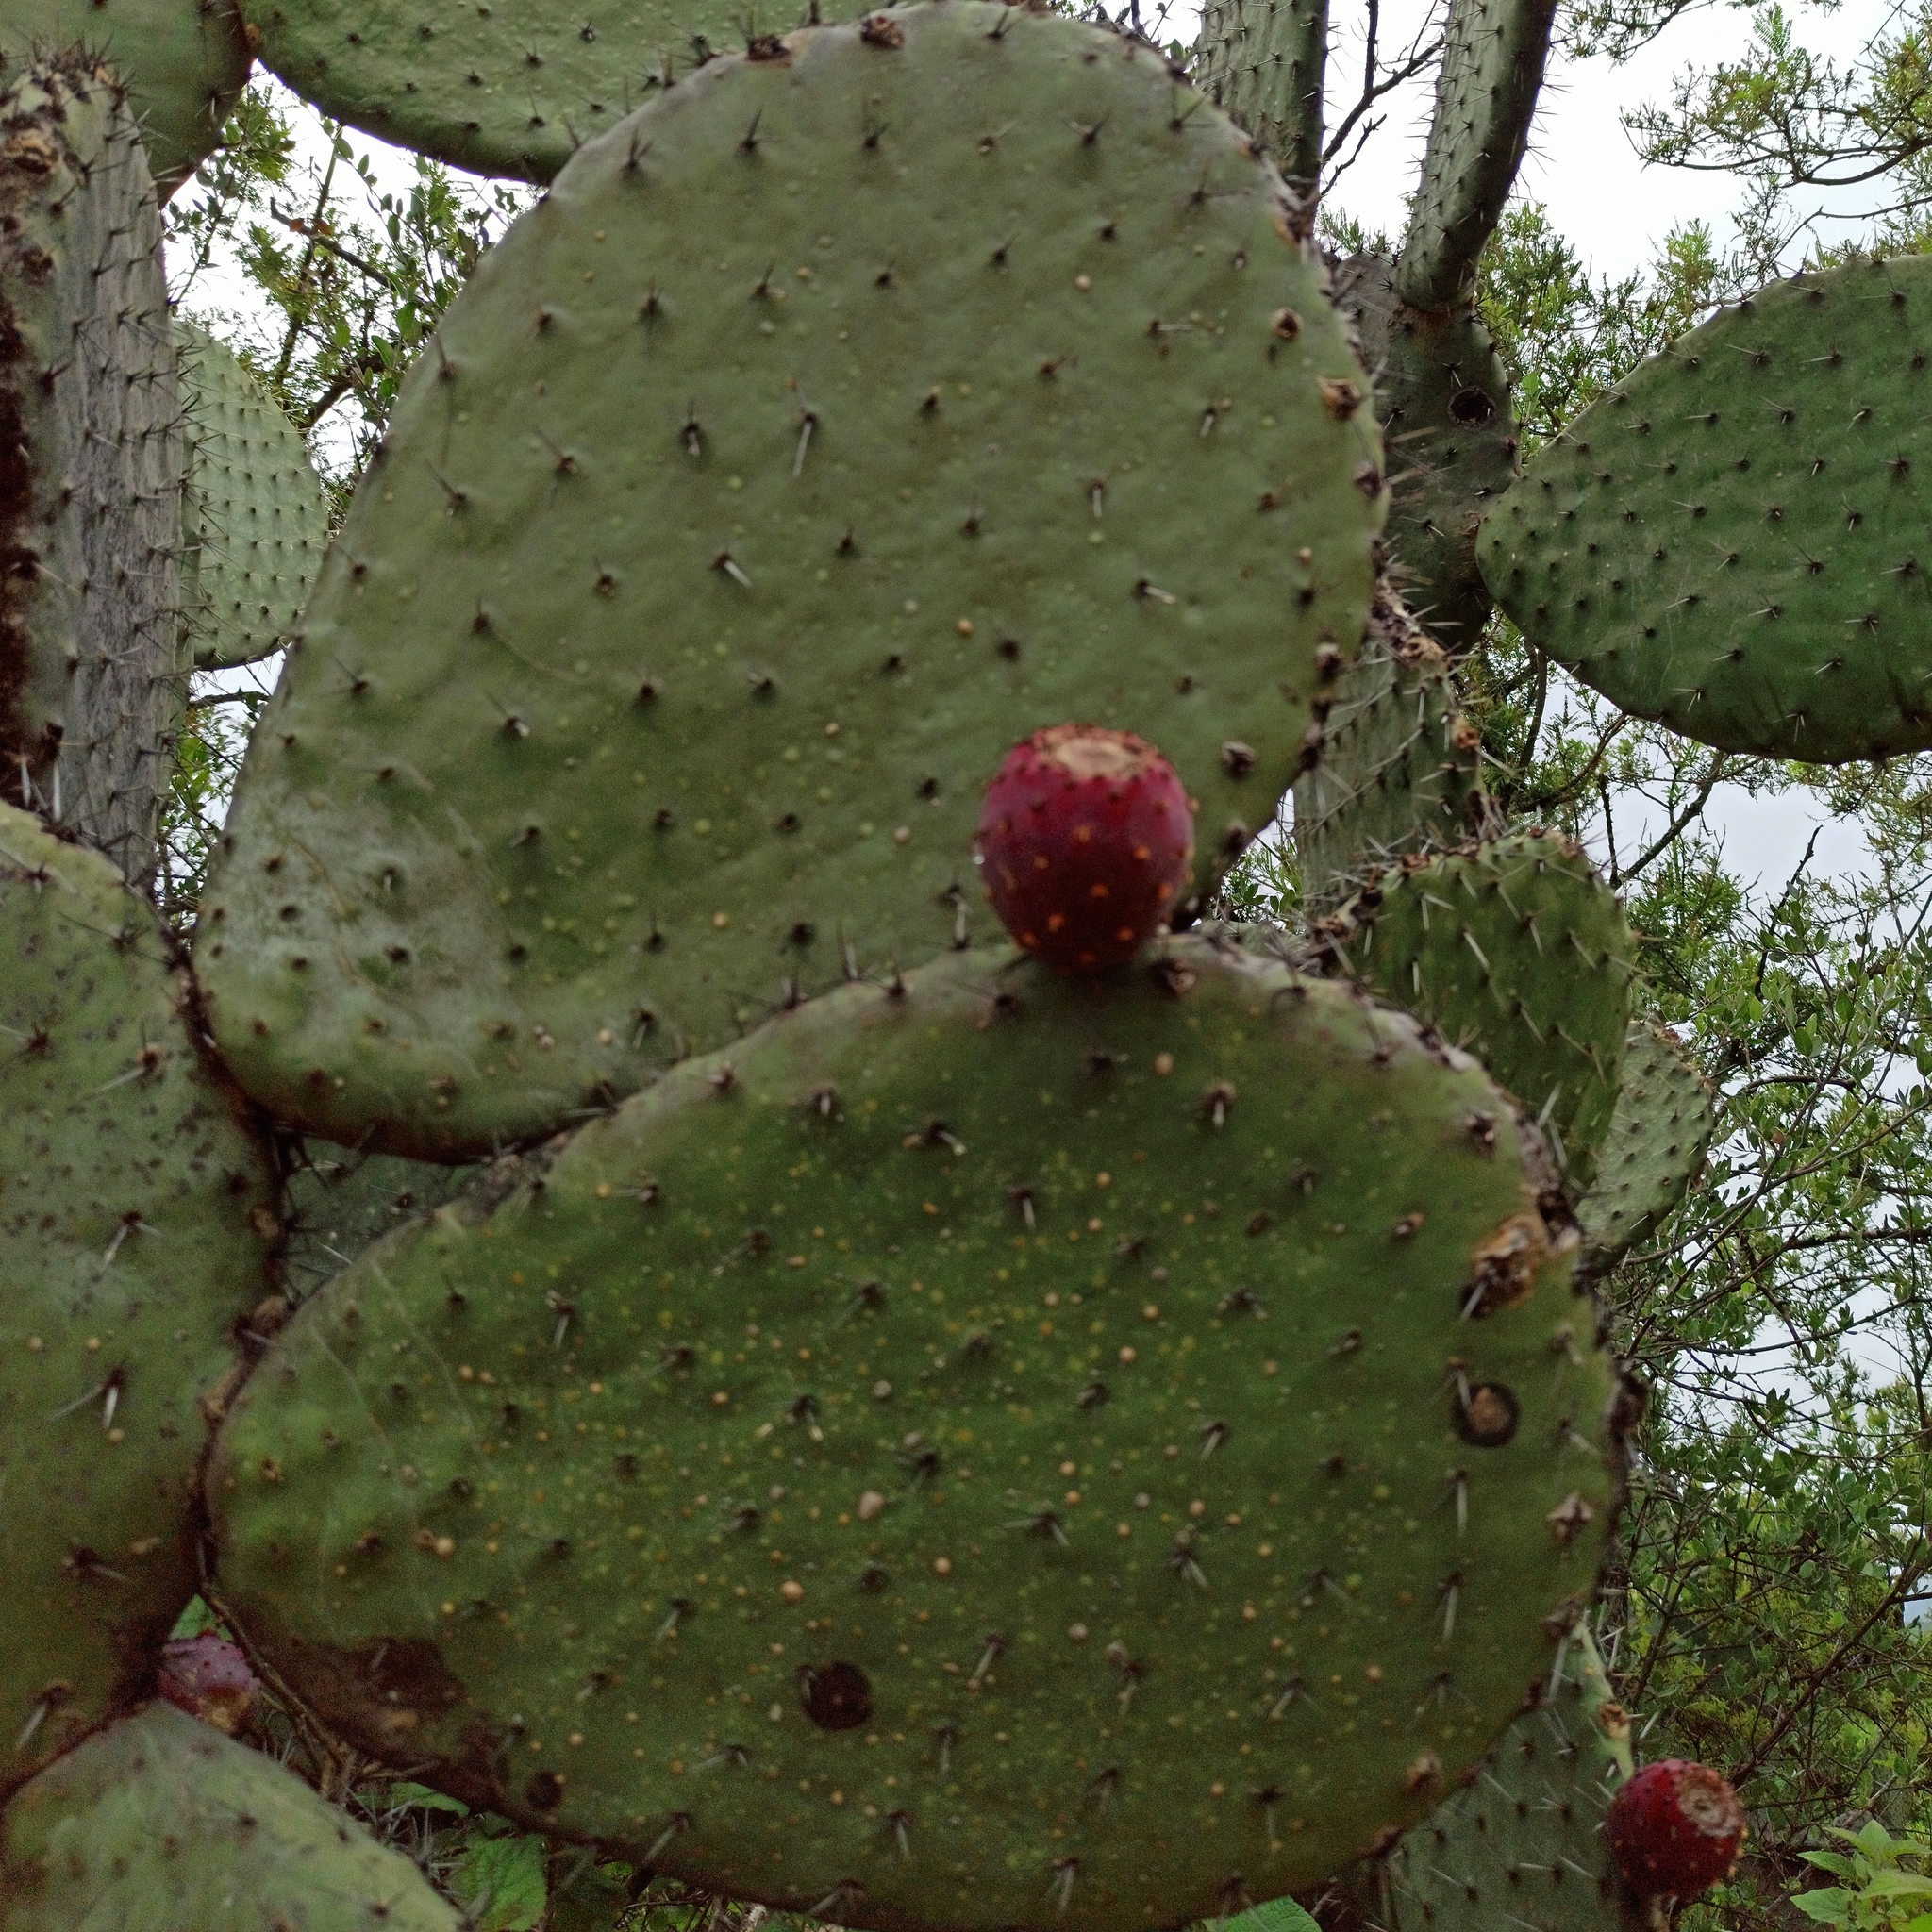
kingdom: Plantae
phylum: Tracheophyta
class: Magnoliopsida
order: Caryophyllales
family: Cactaceae
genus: Opuntia
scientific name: Opuntia streptacantha
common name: Gracemere-pear
